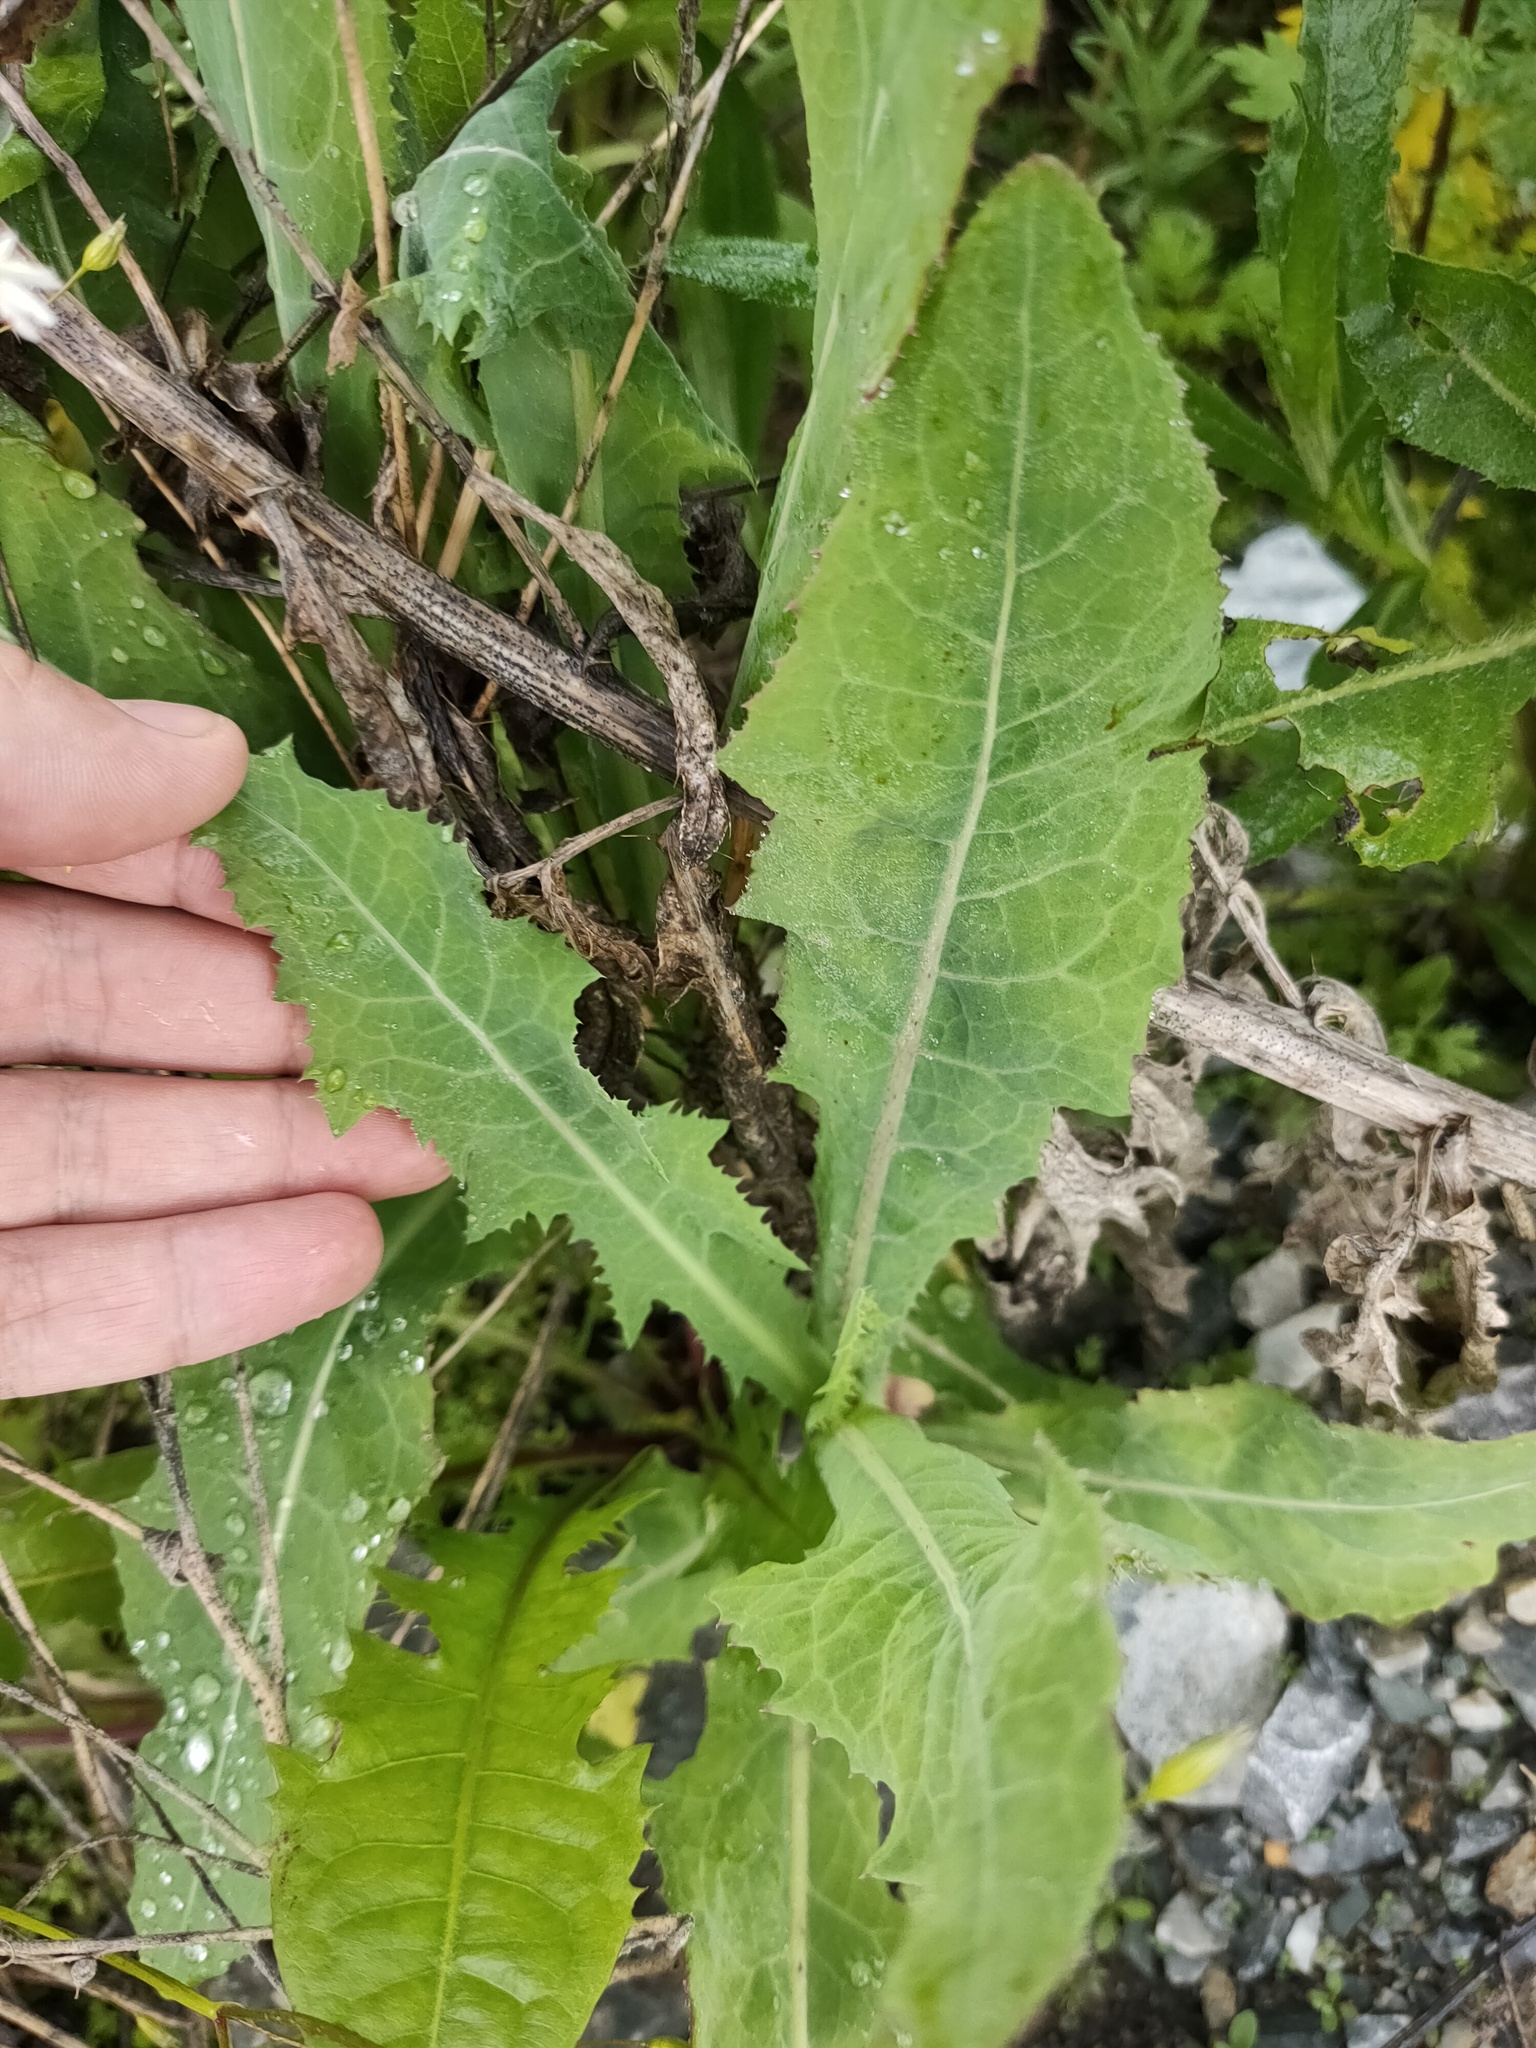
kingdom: Plantae
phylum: Tracheophyta
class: Magnoliopsida
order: Asterales
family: Asteraceae
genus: Sonchus
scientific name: Sonchus arvensis
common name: Perennial sow-thistle
